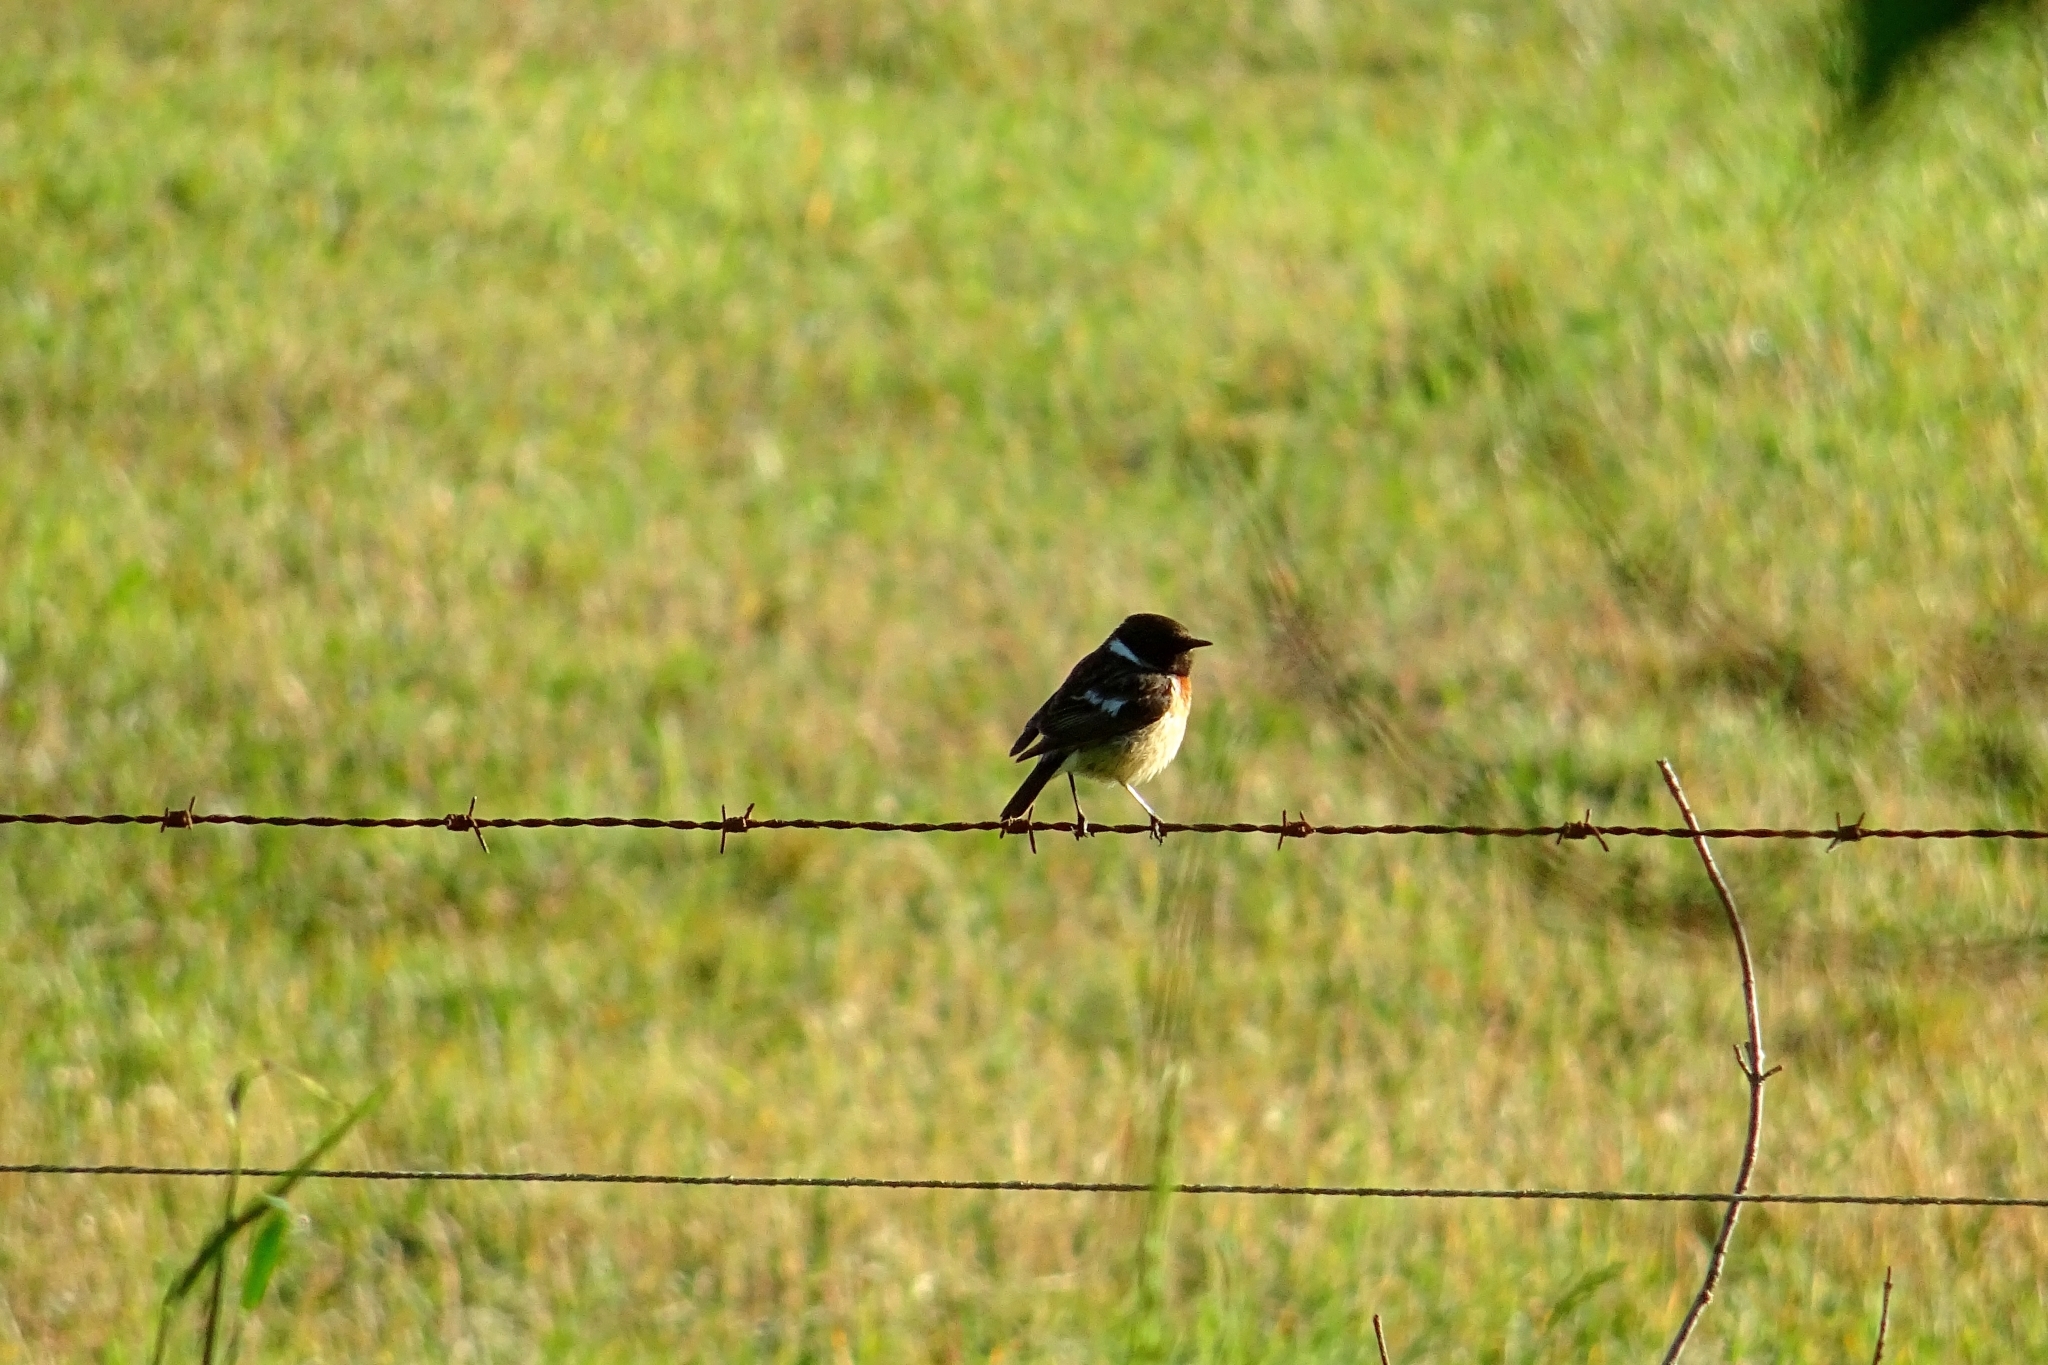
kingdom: Animalia
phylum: Chordata
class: Aves
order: Passeriformes
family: Muscicapidae
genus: Saxicola
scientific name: Saxicola rubicola
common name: European stonechat
